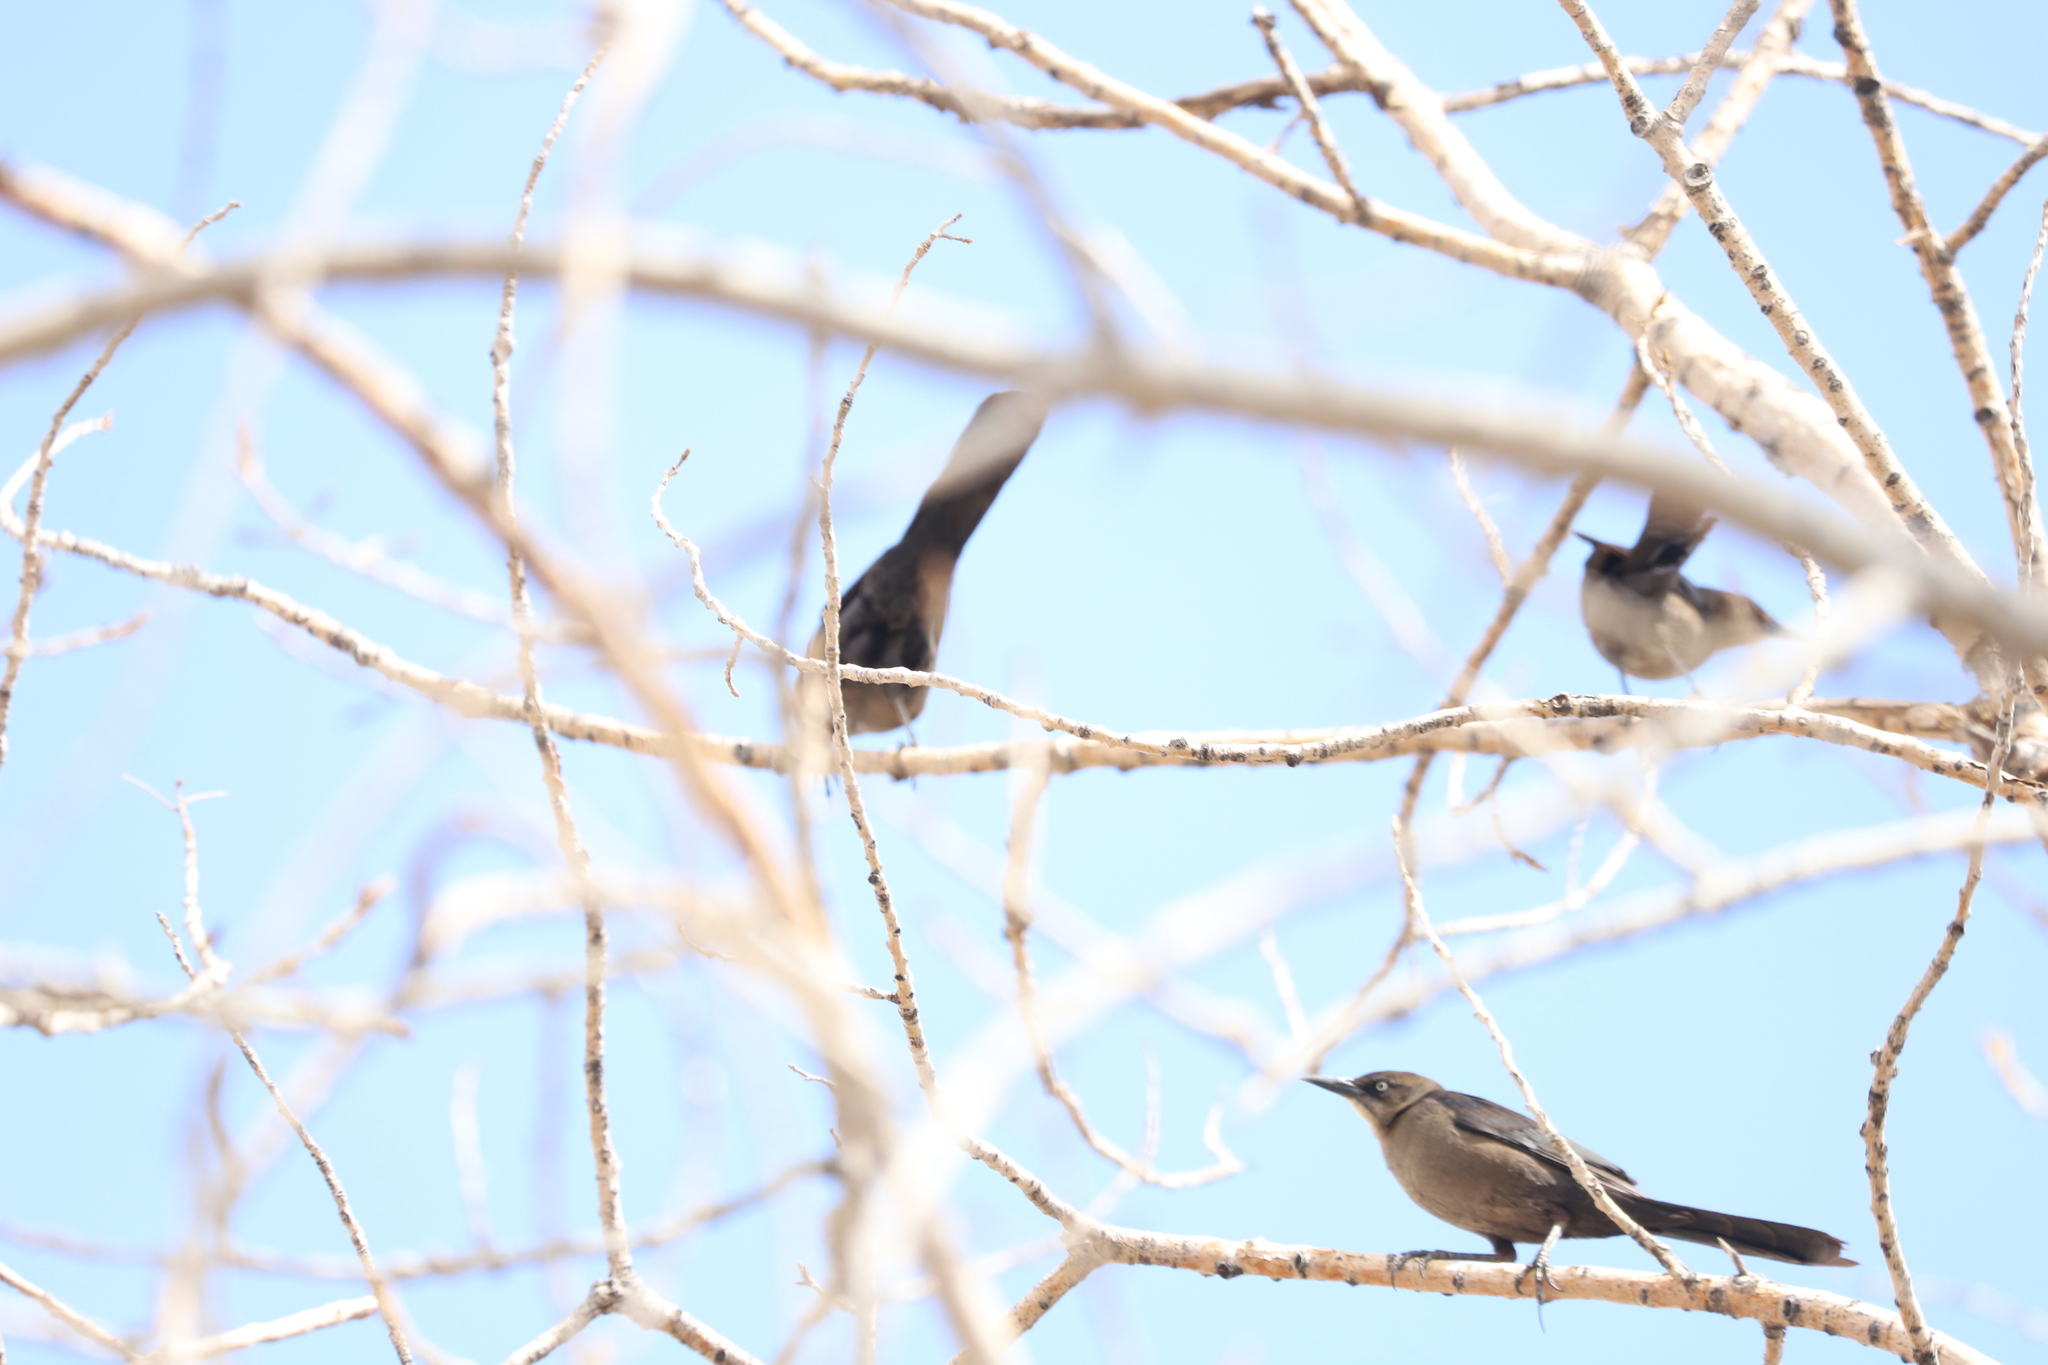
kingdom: Animalia
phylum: Chordata
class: Aves
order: Passeriformes
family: Icteridae
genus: Quiscalus
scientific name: Quiscalus mexicanus
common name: Great-tailed grackle
